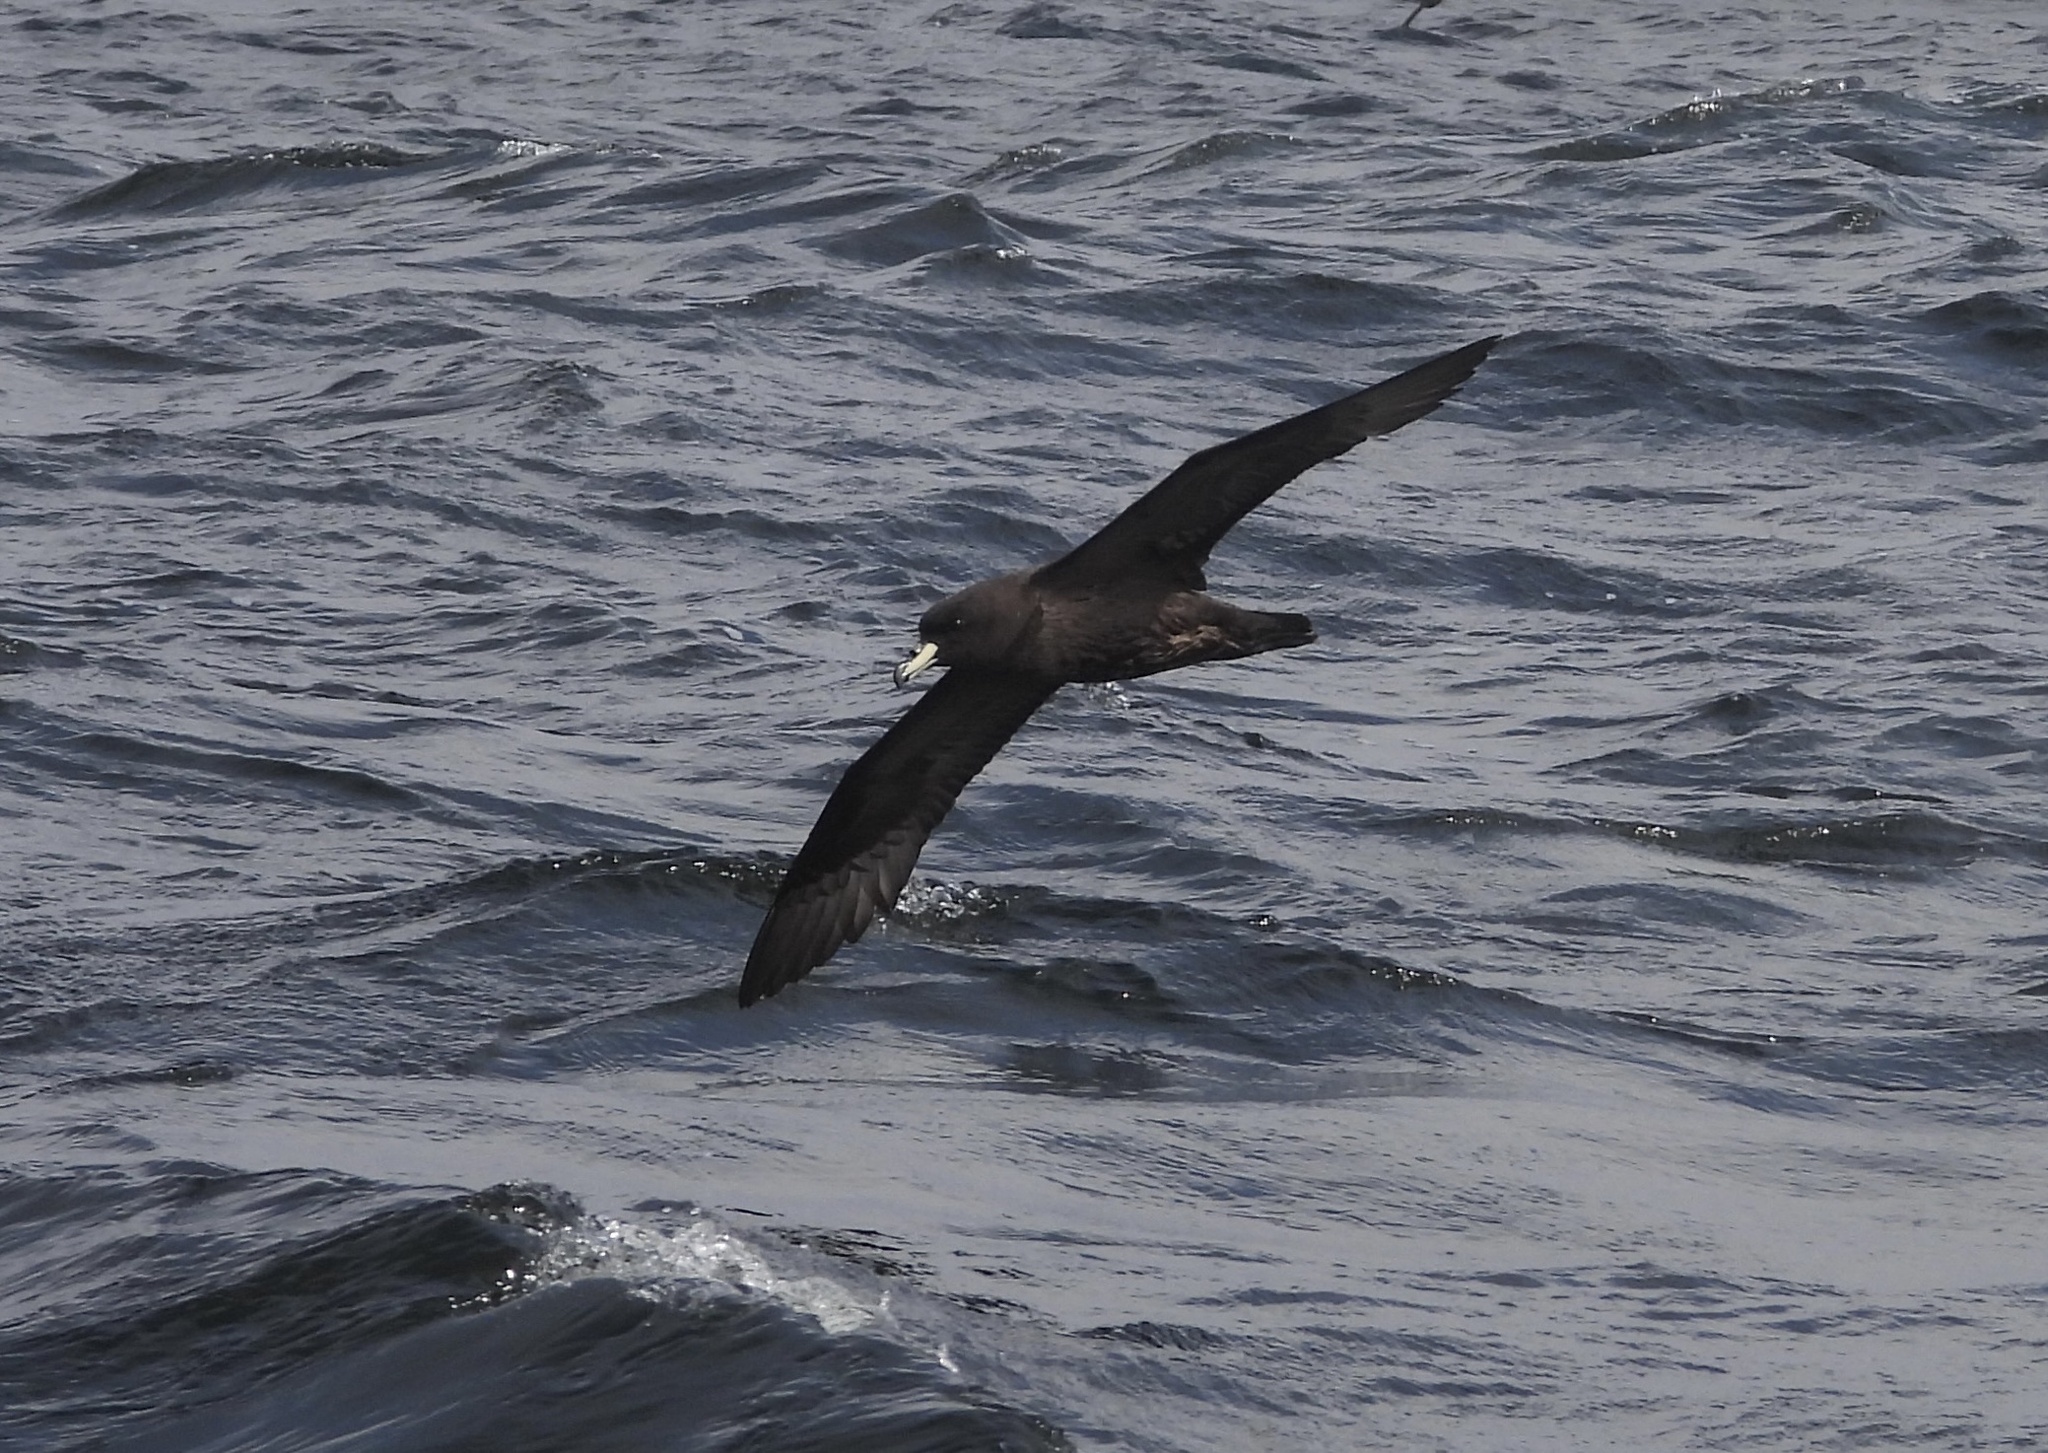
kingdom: Animalia
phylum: Chordata
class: Aves
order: Procellariiformes
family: Procellariidae
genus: Procellaria
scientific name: Procellaria westlandica
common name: Westland petrel
